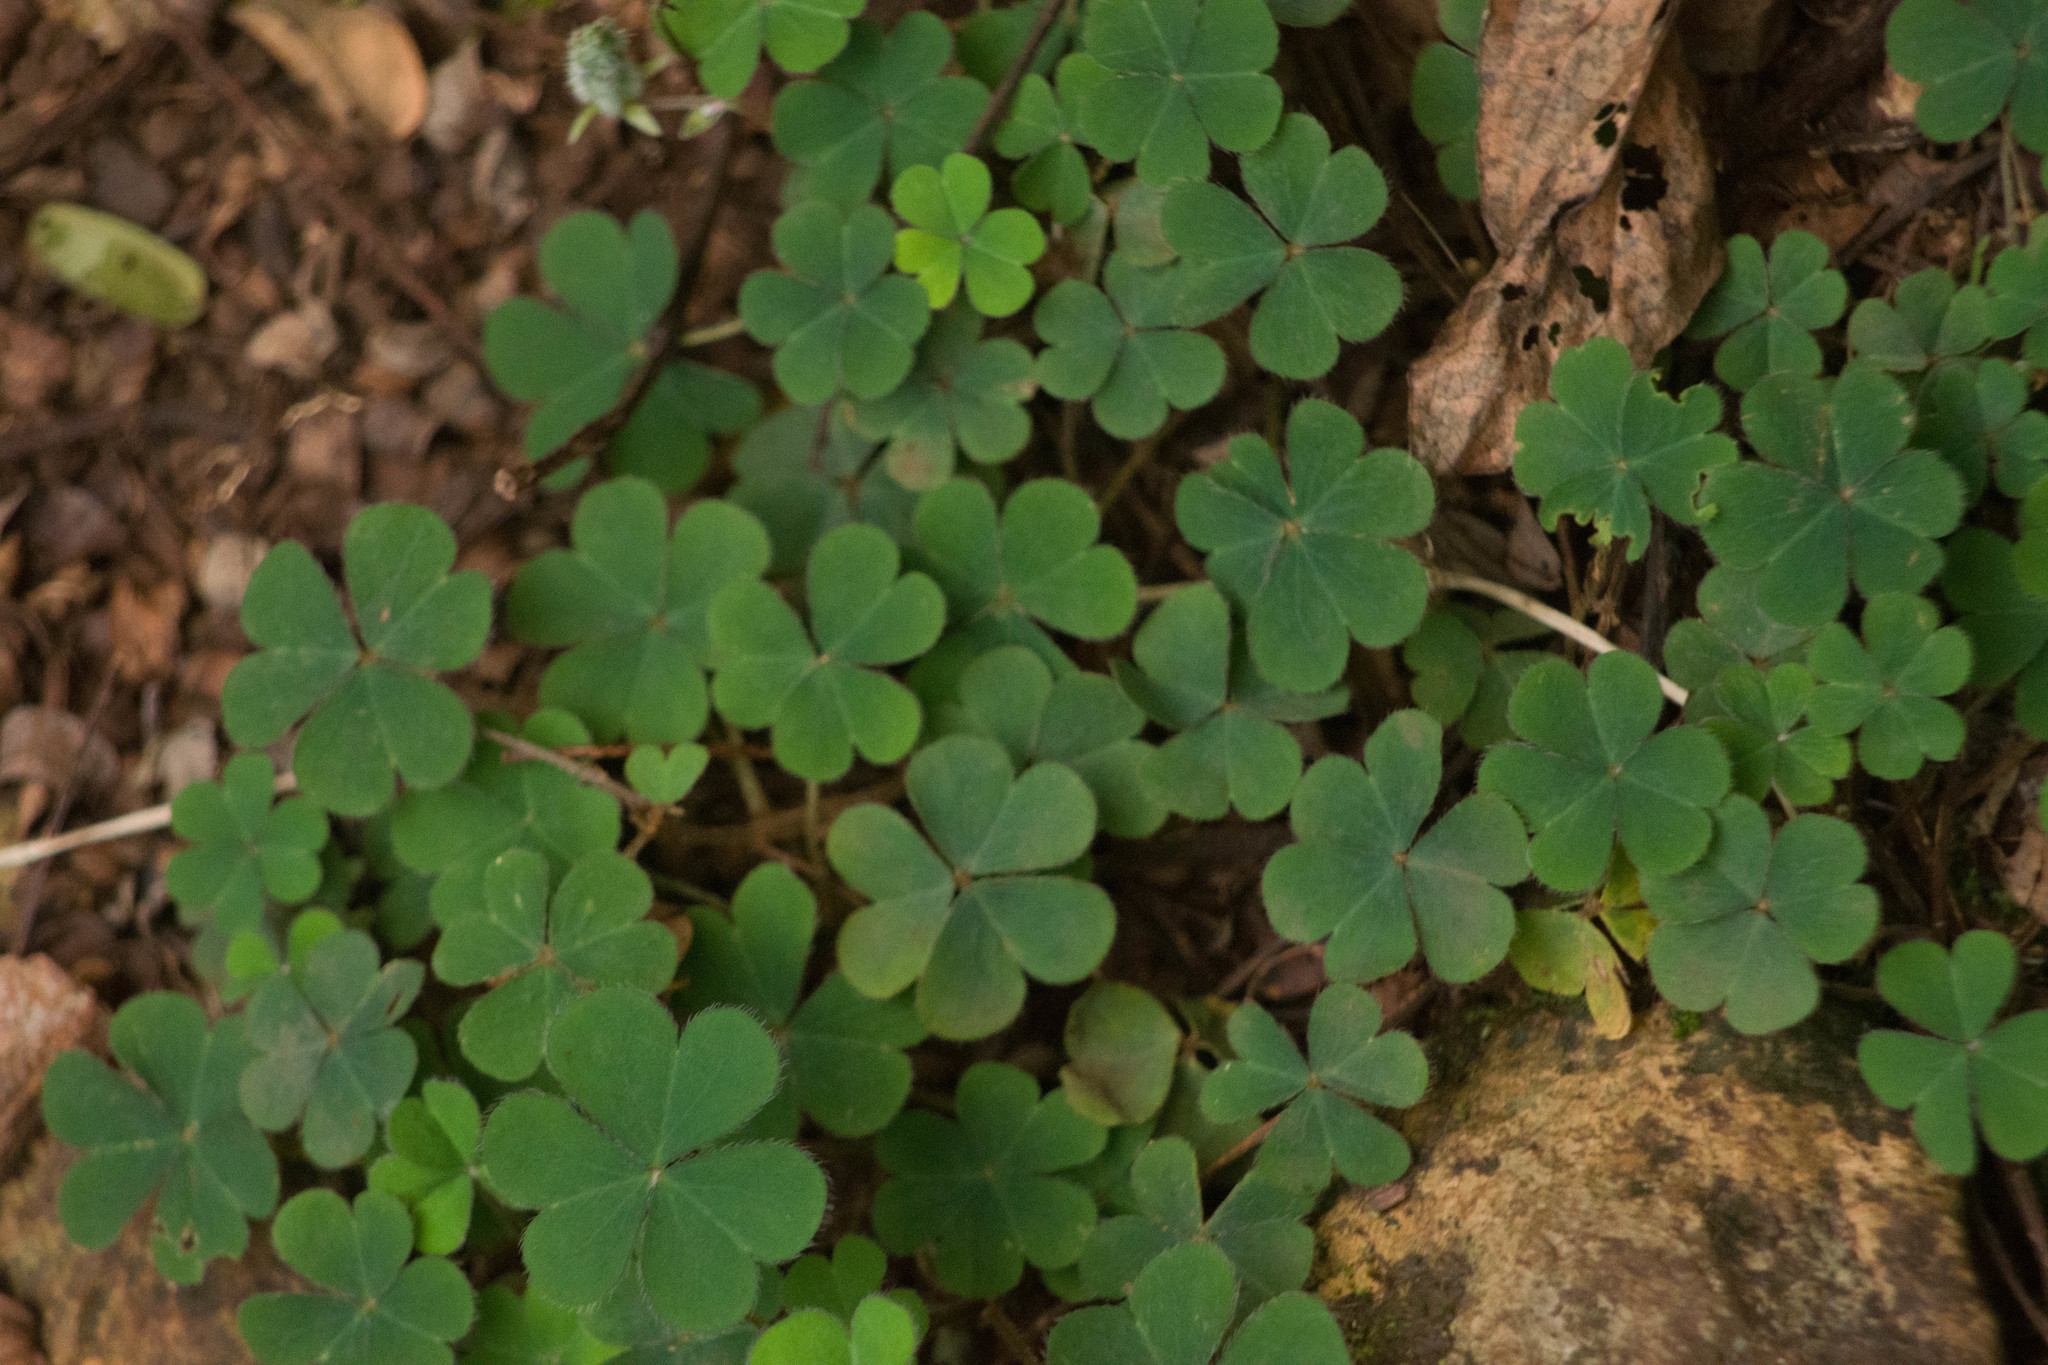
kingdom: Plantae
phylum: Tracheophyta
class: Magnoliopsida
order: Oxalidales
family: Oxalidaceae
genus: Oxalis
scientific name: Oxalis corniculata
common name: Procumbent yellow-sorrel
